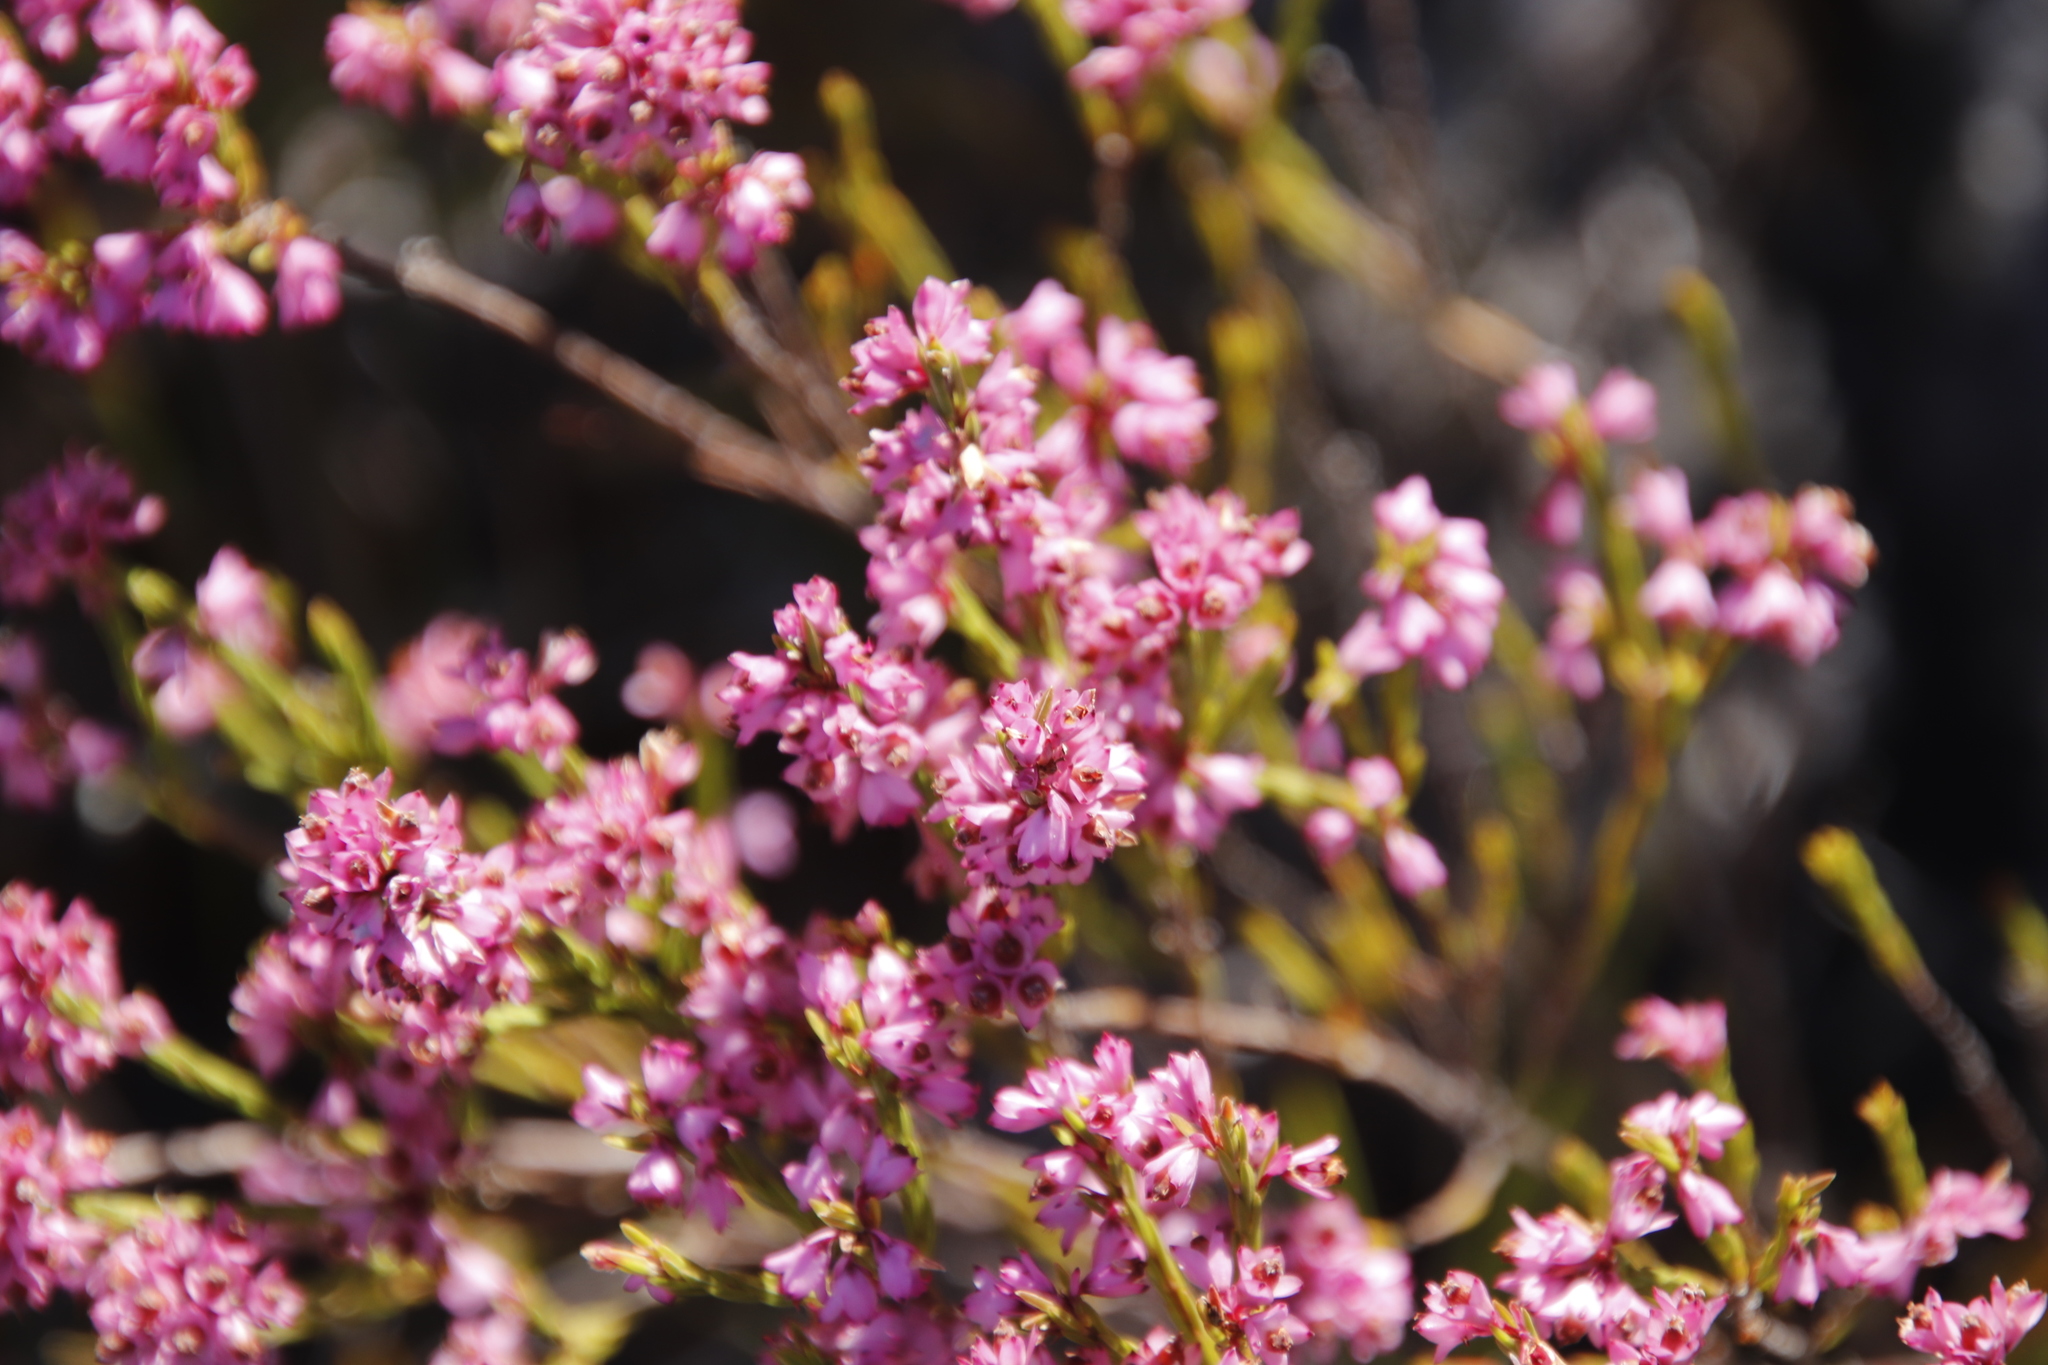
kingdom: Plantae
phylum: Tracheophyta
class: Magnoliopsida
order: Ericales
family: Ericaceae
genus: Erica
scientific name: Erica corifolia
